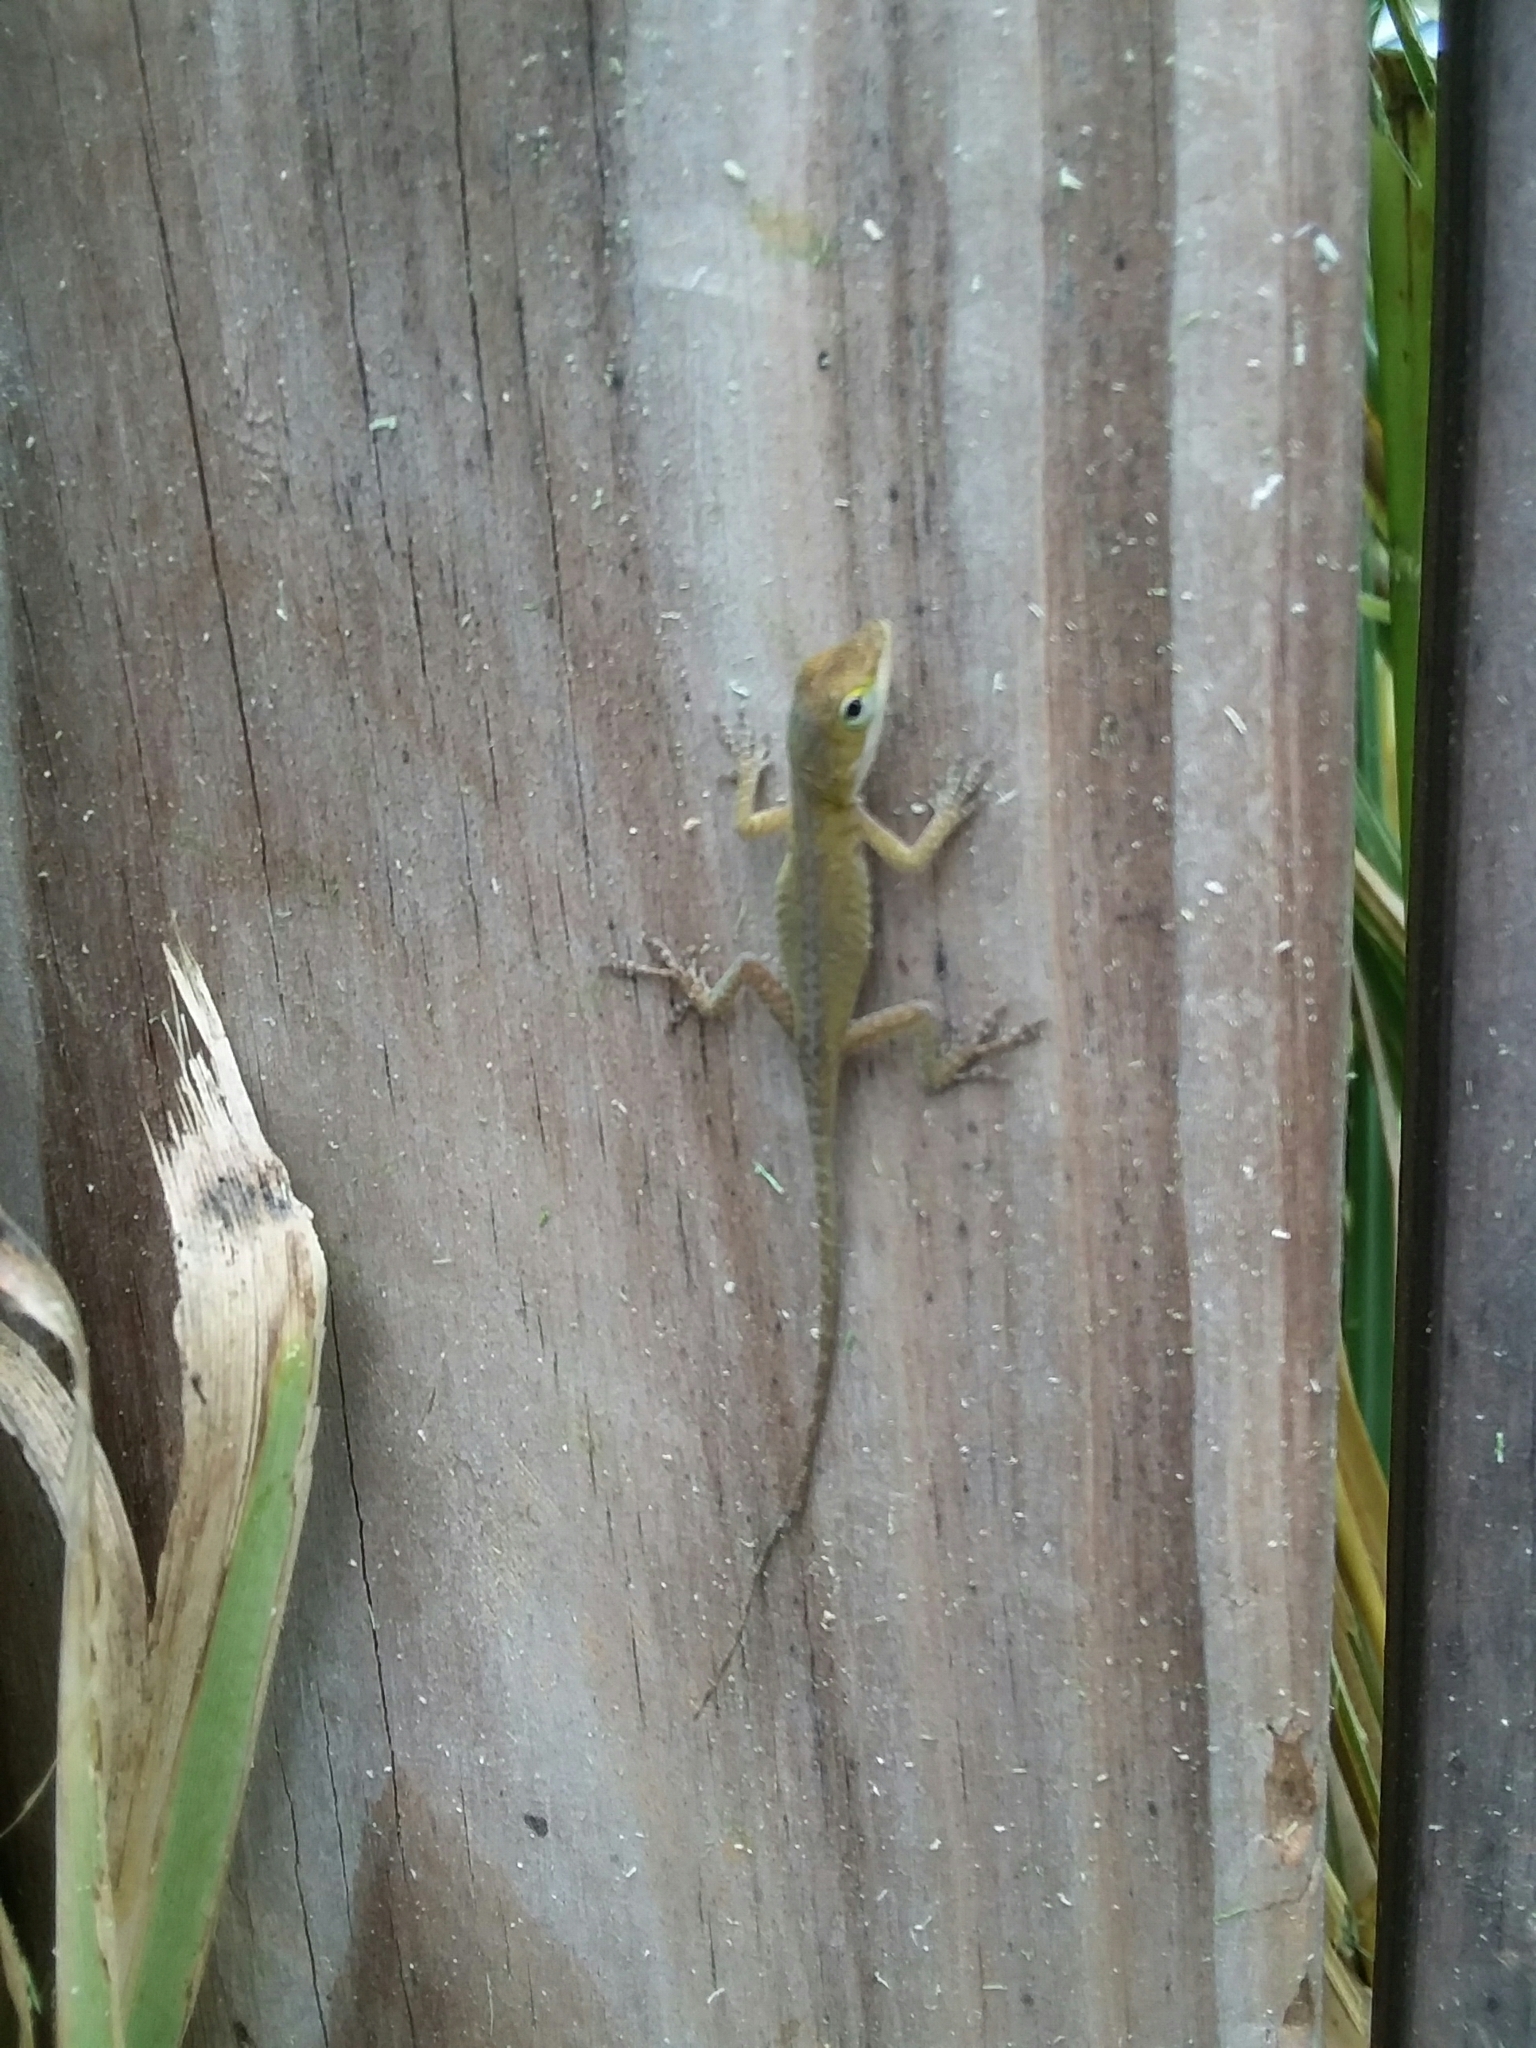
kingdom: Animalia
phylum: Chordata
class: Squamata
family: Dactyloidae
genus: Anolis
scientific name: Anolis carolinensis
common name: Green anole
